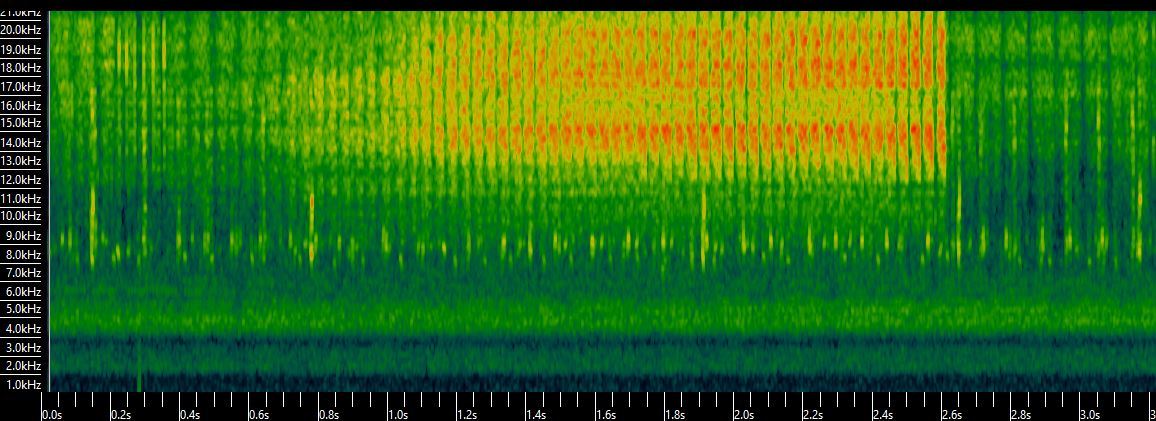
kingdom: Animalia
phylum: Arthropoda
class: Insecta
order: Orthoptera
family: Tettigoniidae
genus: Platycleis
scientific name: Platycleis falx
